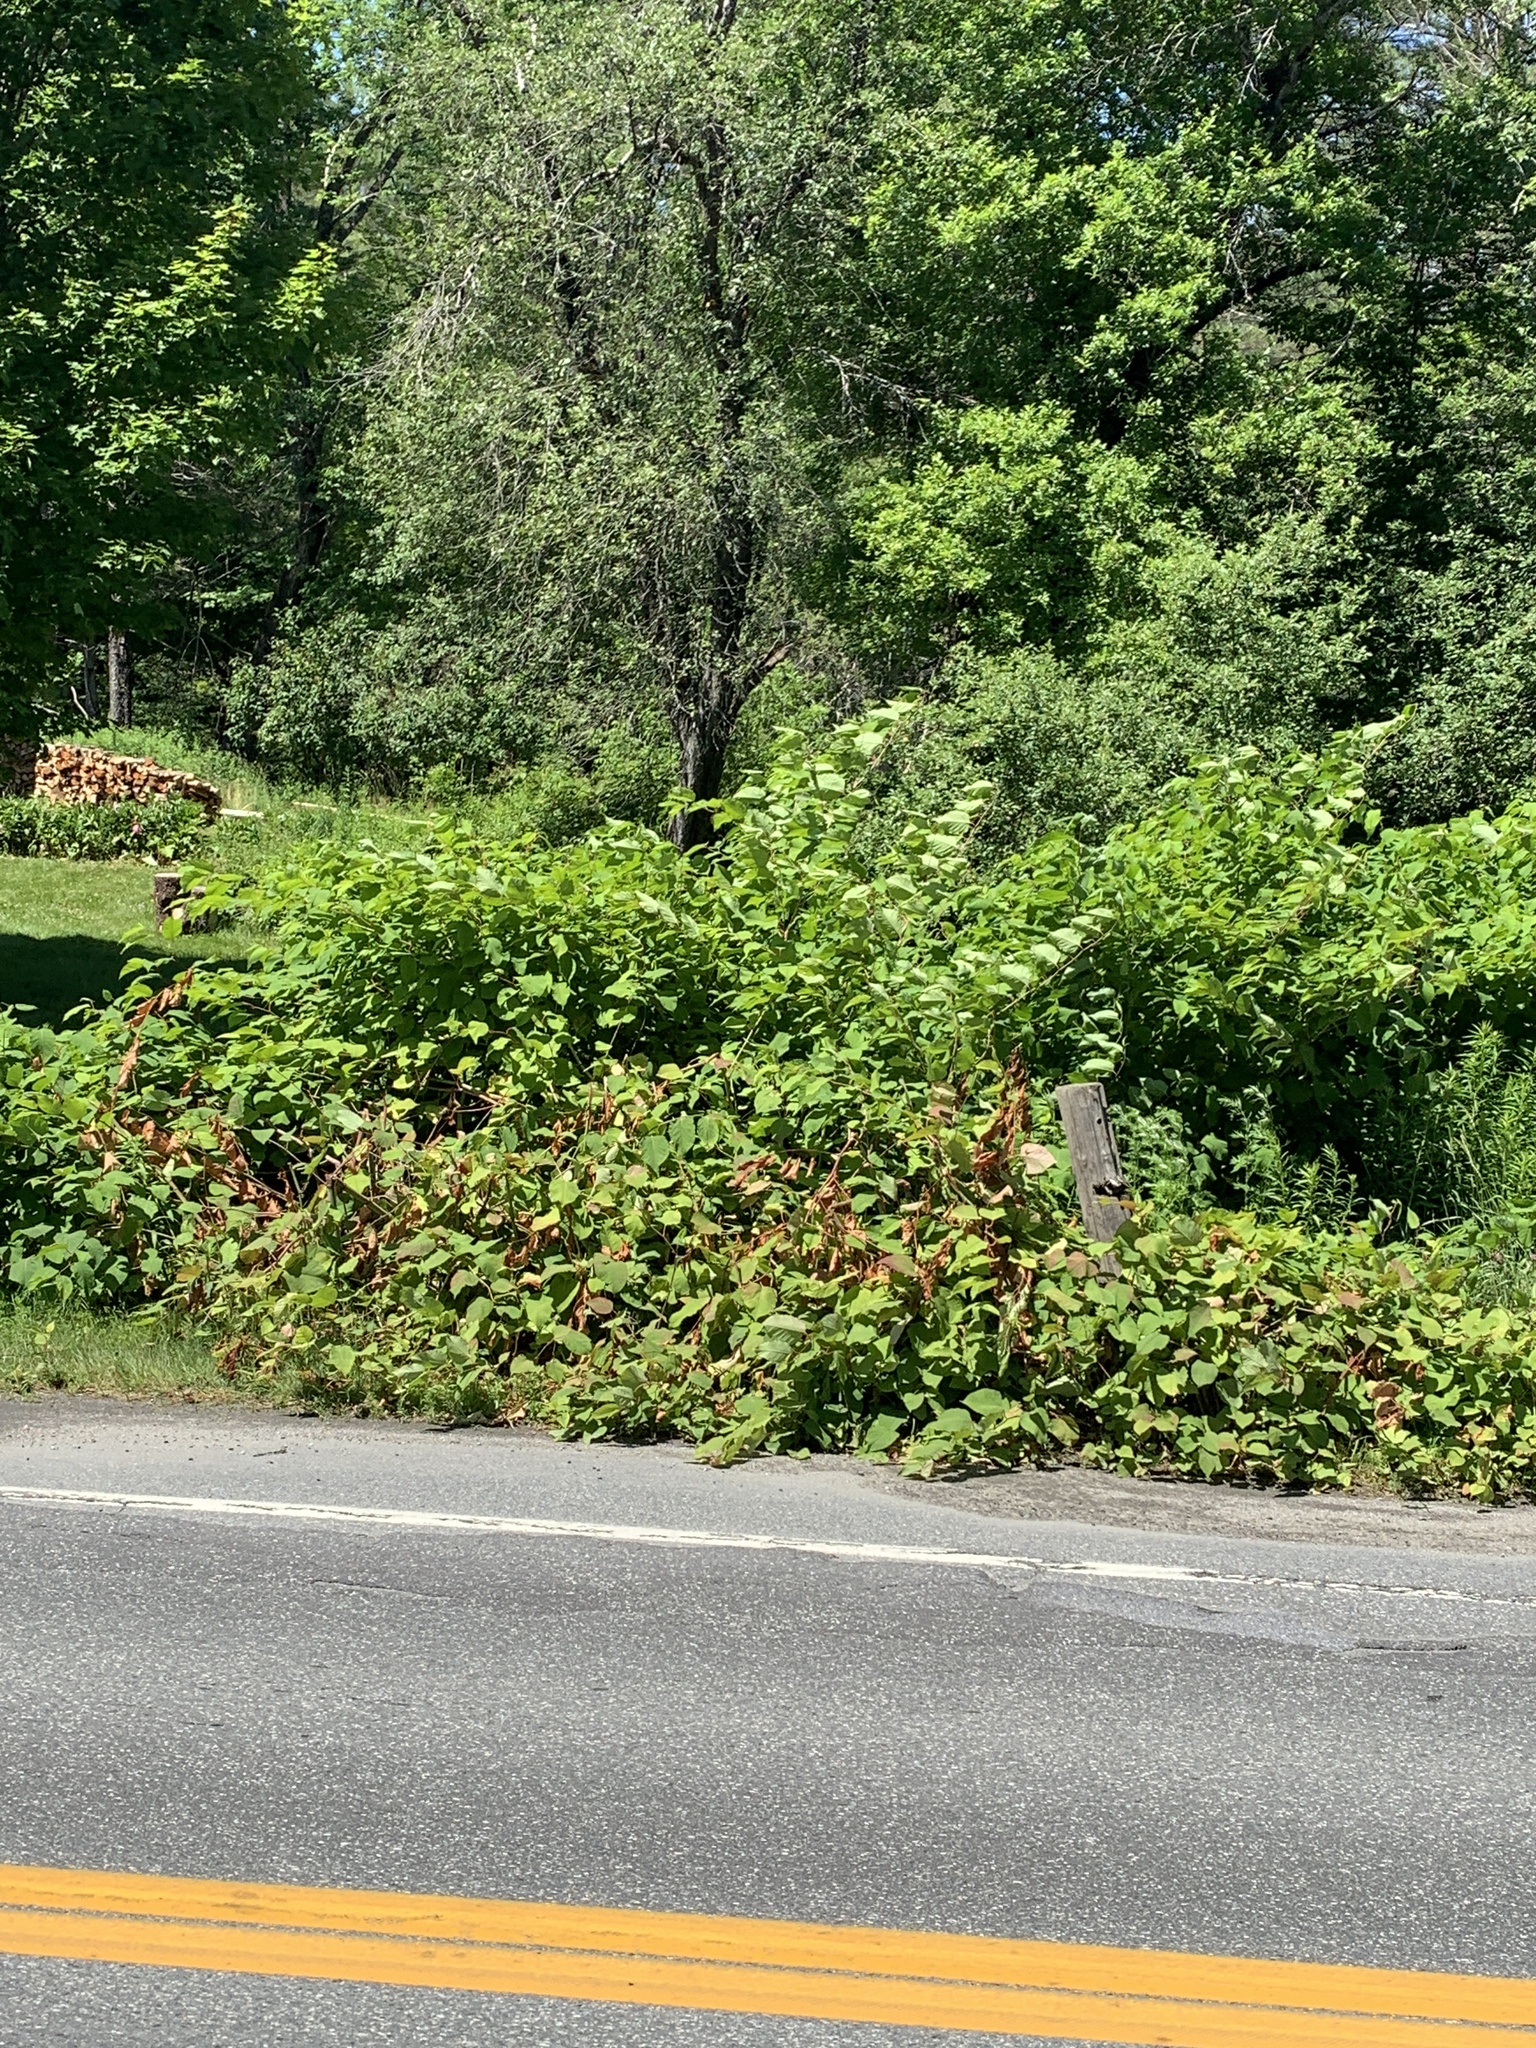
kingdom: Plantae
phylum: Tracheophyta
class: Magnoliopsida
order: Caryophyllales
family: Polygonaceae
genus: Reynoutria
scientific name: Reynoutria japonica
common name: Japanese knotweed
